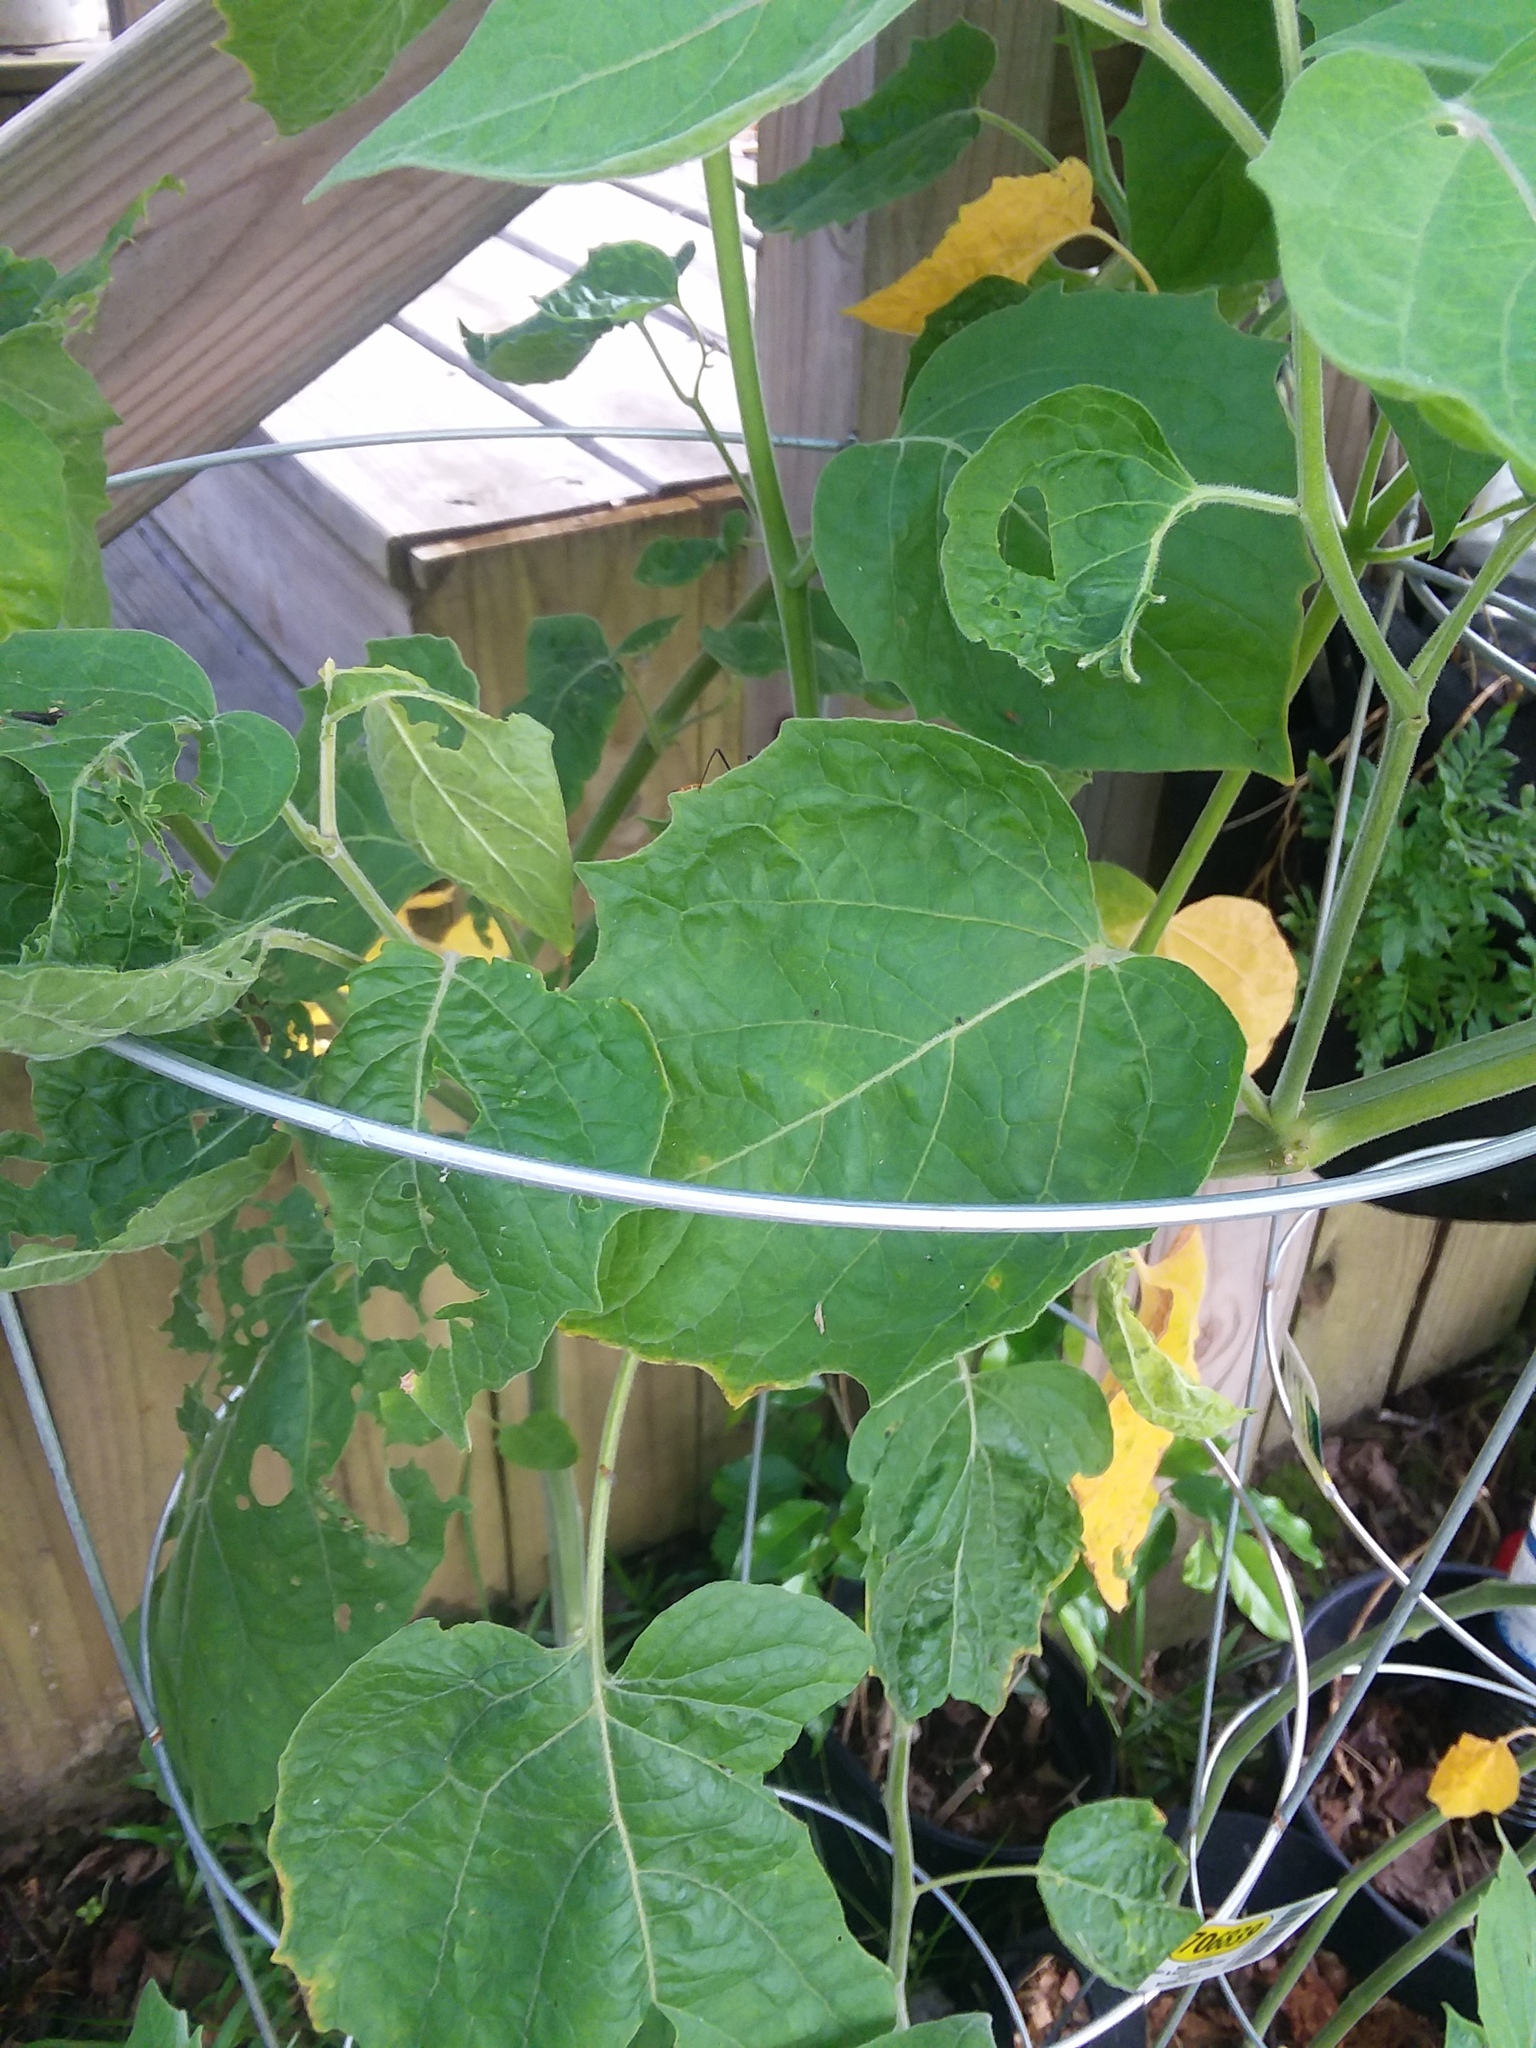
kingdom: Animalia
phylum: Arthropoda
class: Insecta
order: Hemiptera
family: Reduviidae
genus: Zelus
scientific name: Zelus longipes
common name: Milkweed assassin bug
